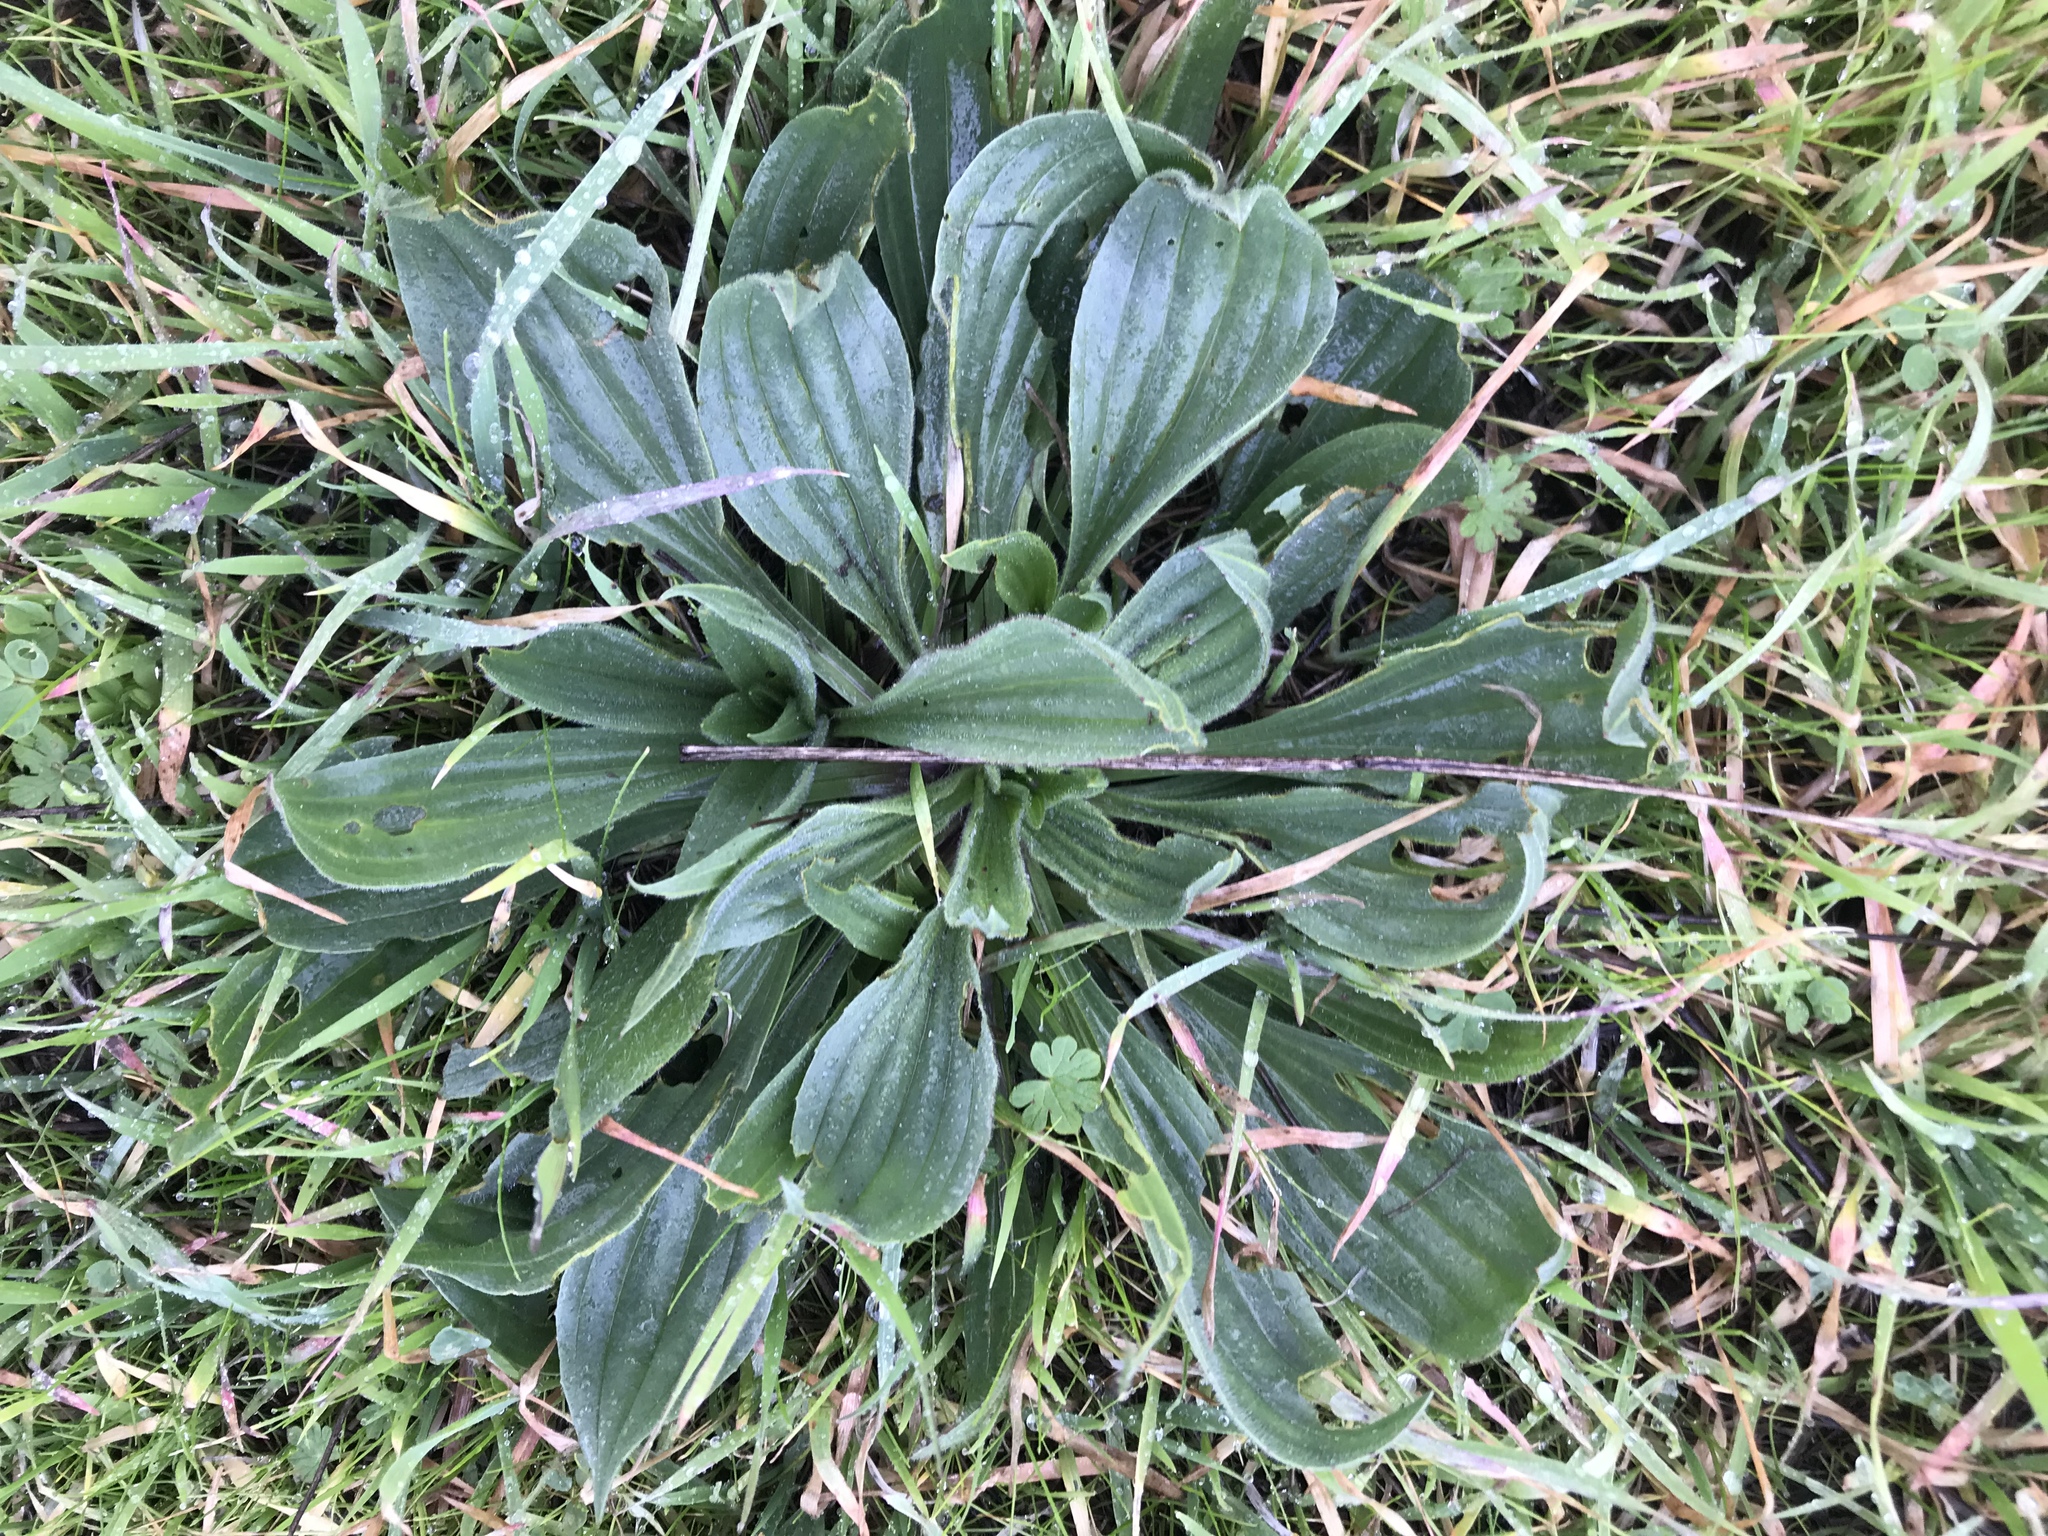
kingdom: Plantae
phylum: Tracheophyta
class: Magnoliopsida
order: Lamiales
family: Plantaginaceae
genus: Plantago
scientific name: Plantago lanceolata
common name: Ribwort plantain
